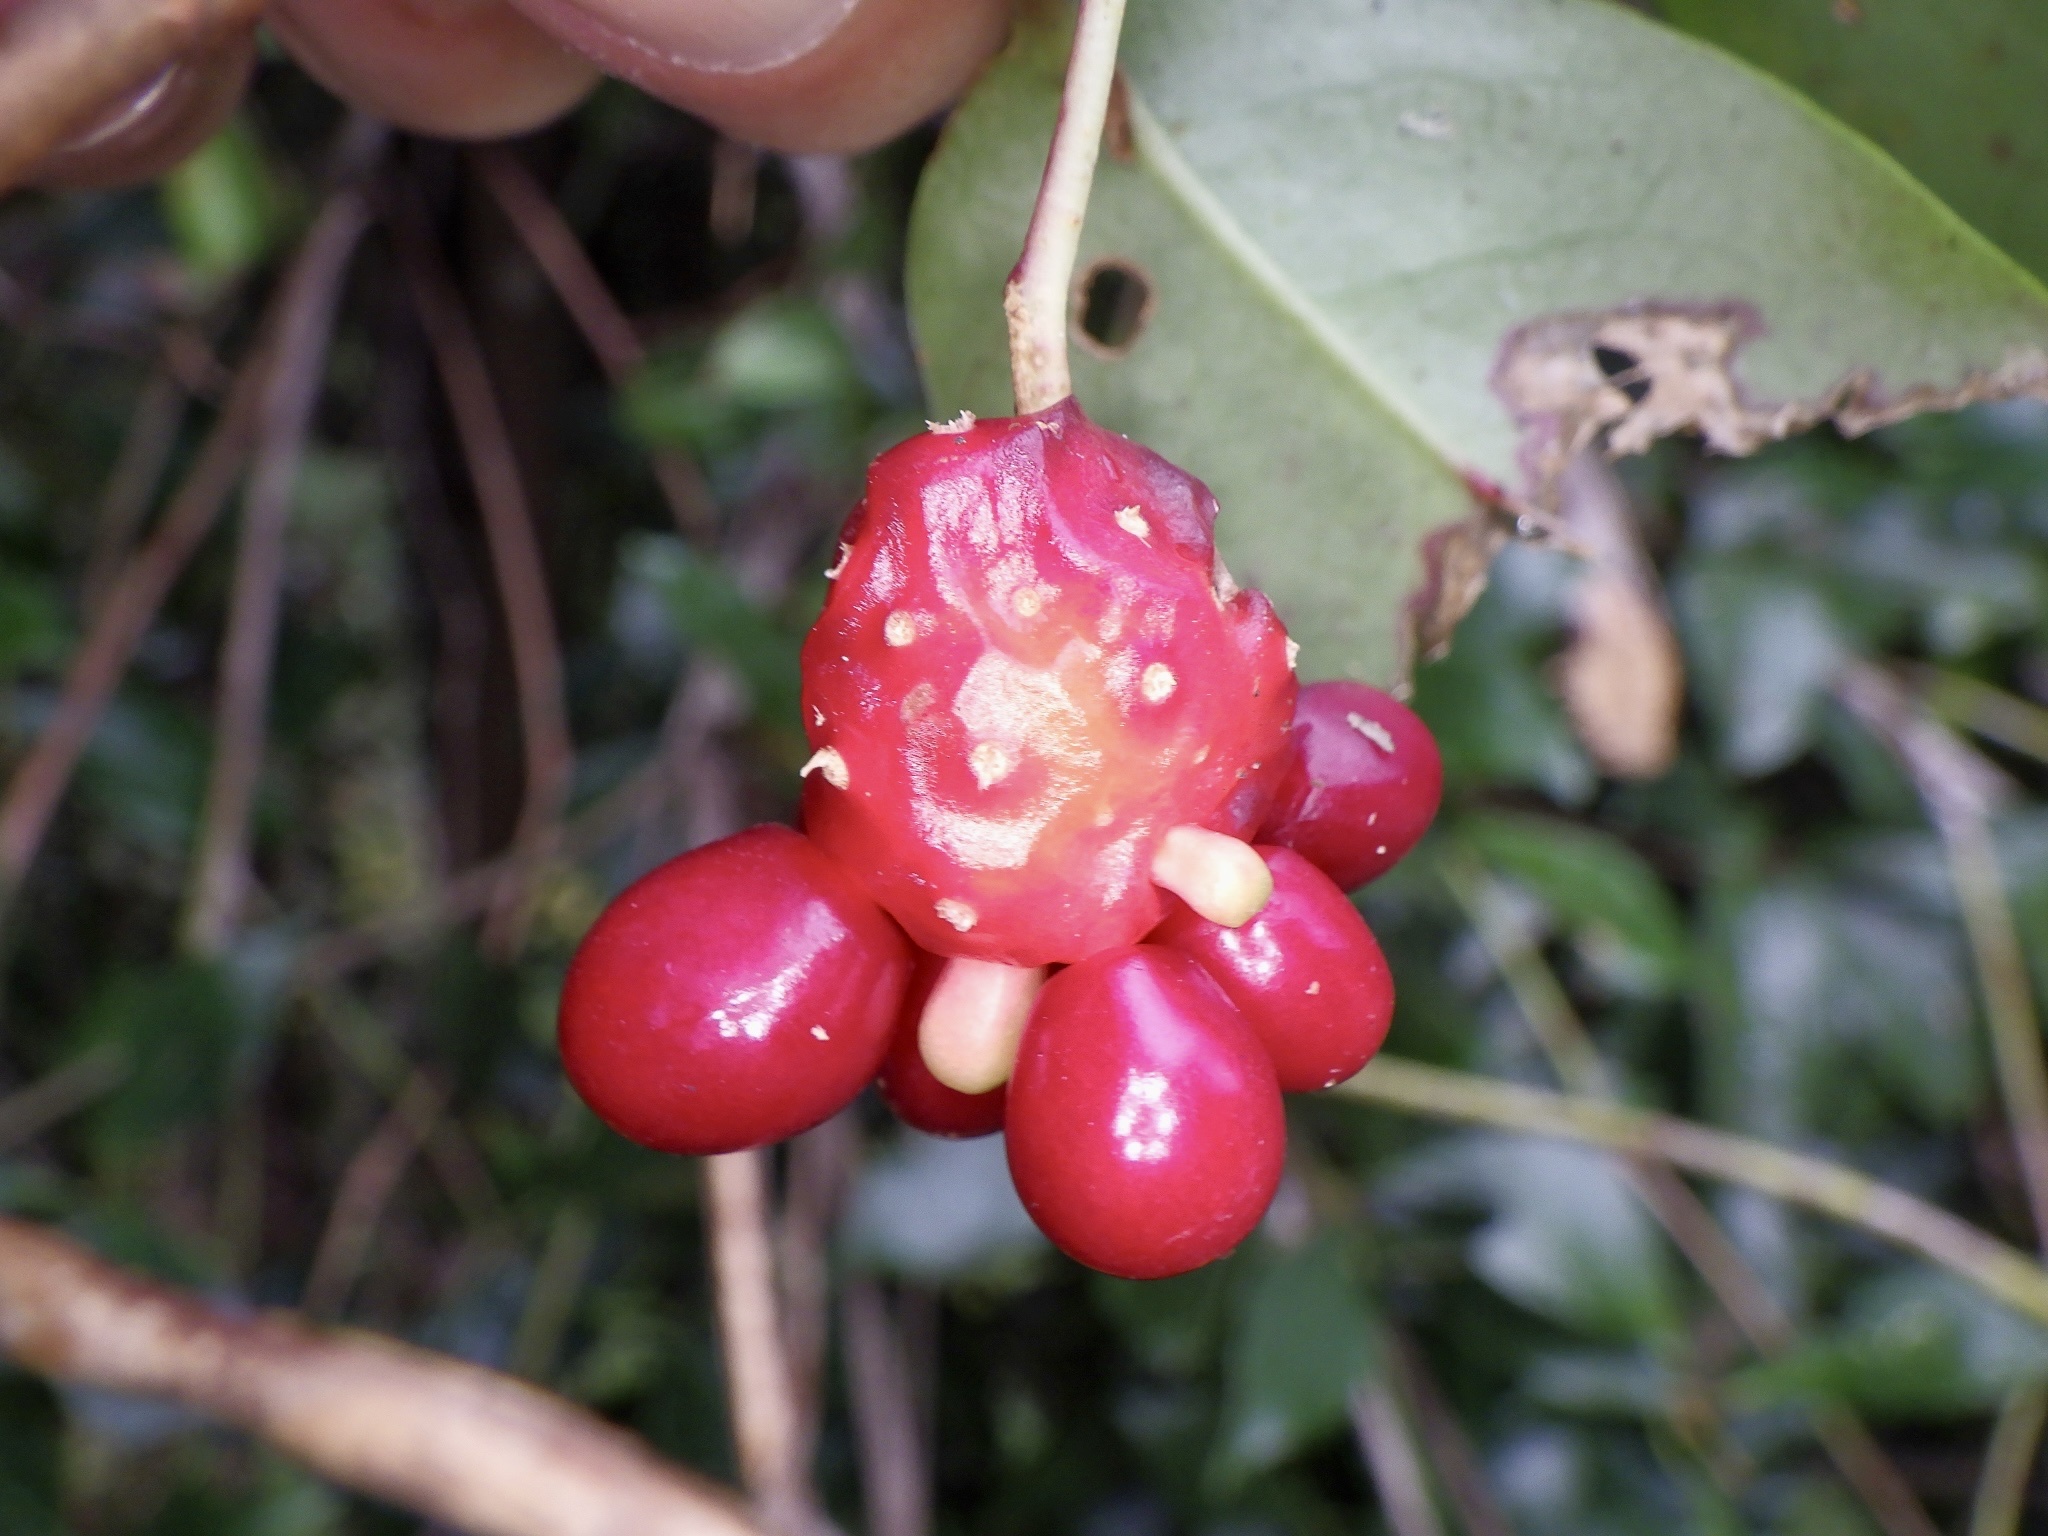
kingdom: Plantae
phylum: Tracheophyta
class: Magnoliopsida
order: Austrobaileyales
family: Schisandraceae
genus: Kadsura
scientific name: Kadsura japonica
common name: Japanese kadsura
